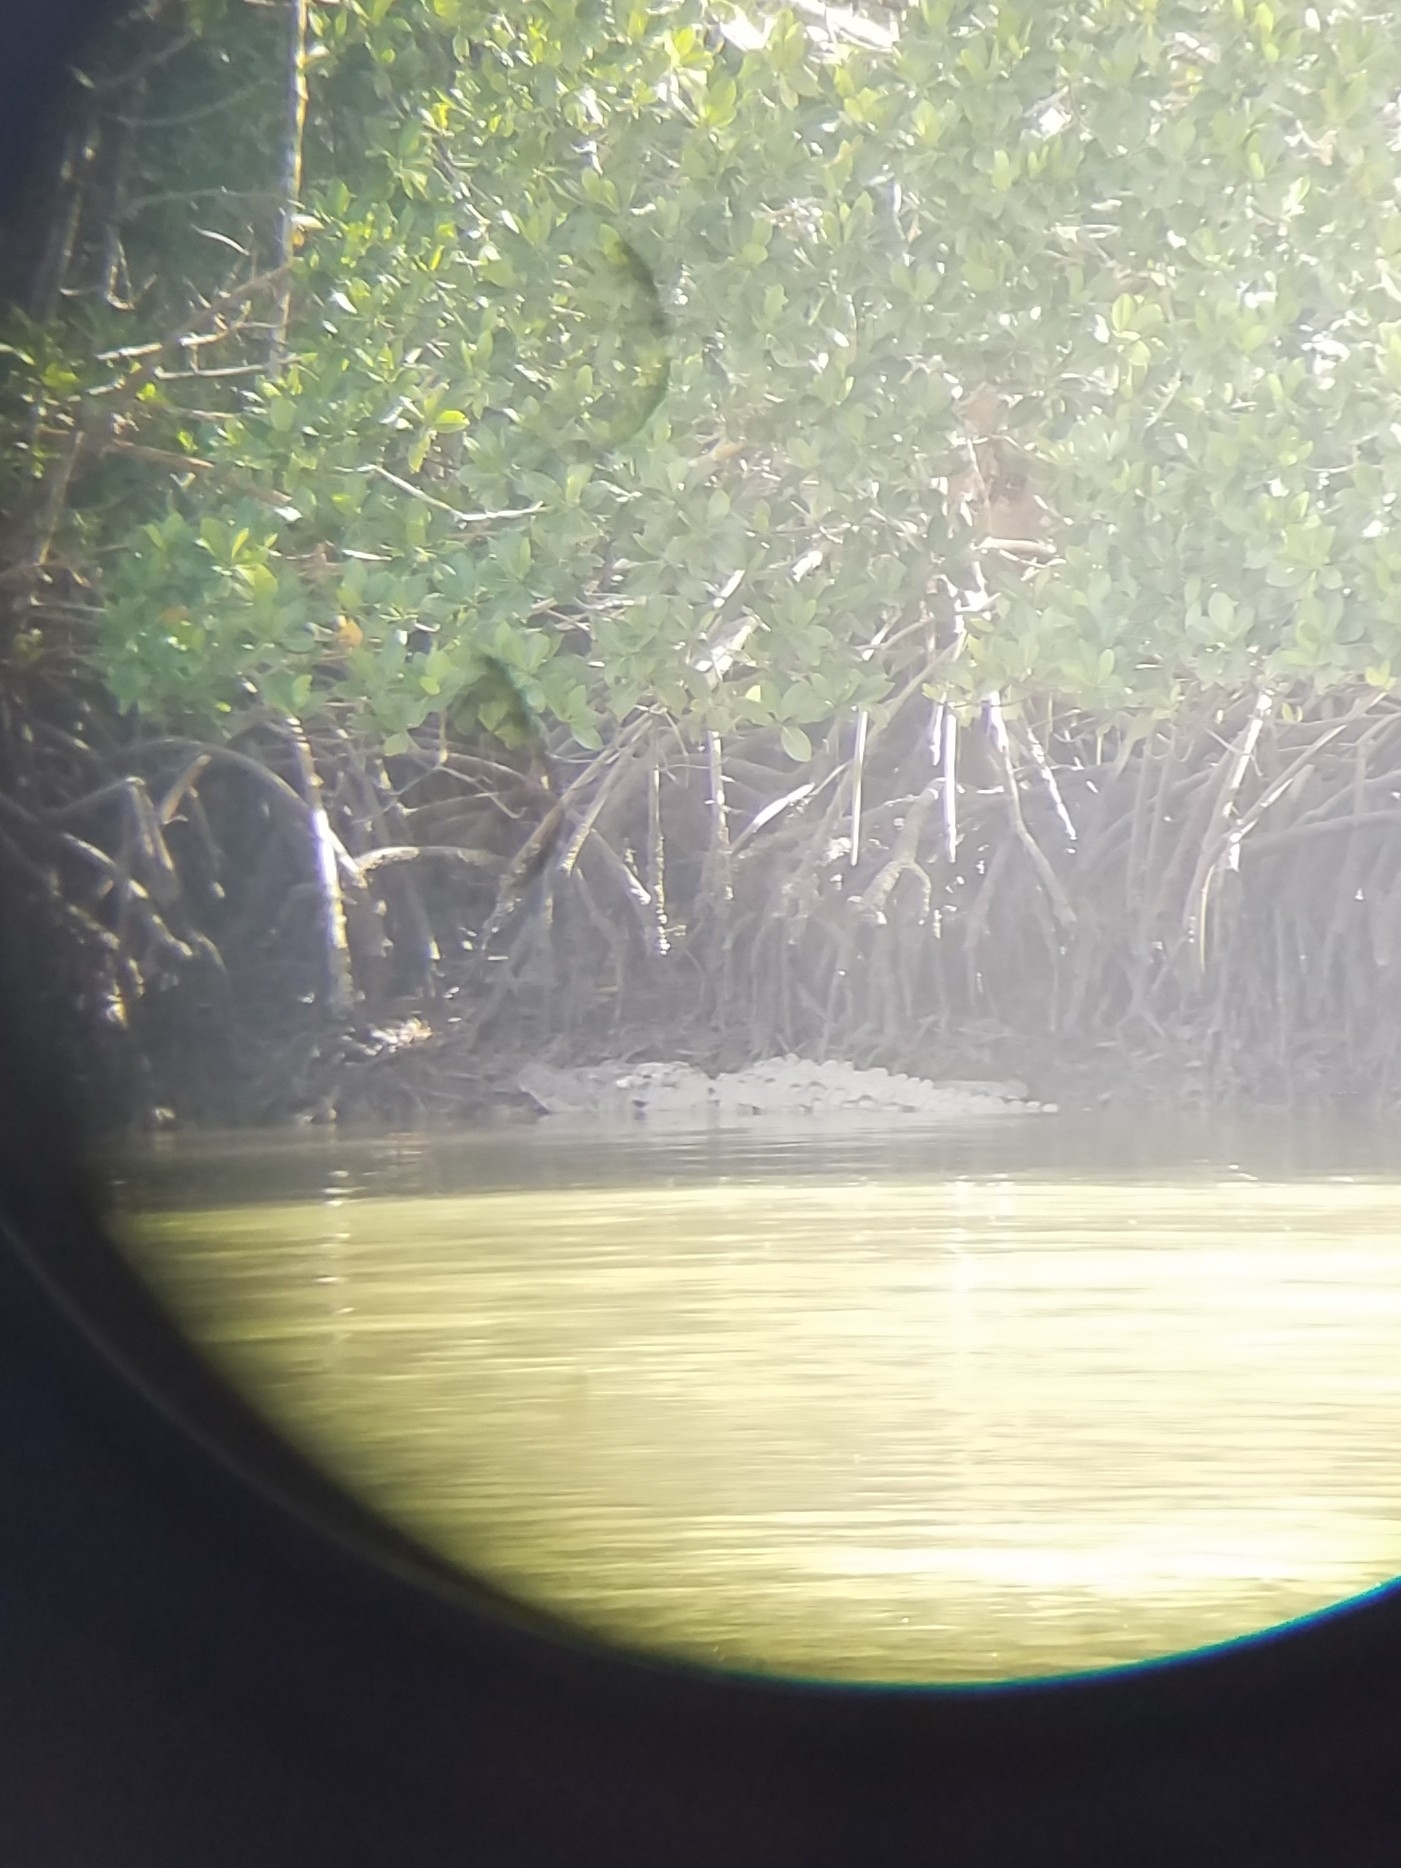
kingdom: Animalia
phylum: Chordata
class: Crocodylia
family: Crocodylidae
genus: Crocodylus
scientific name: Crocodylus acutus
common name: American crocodile
